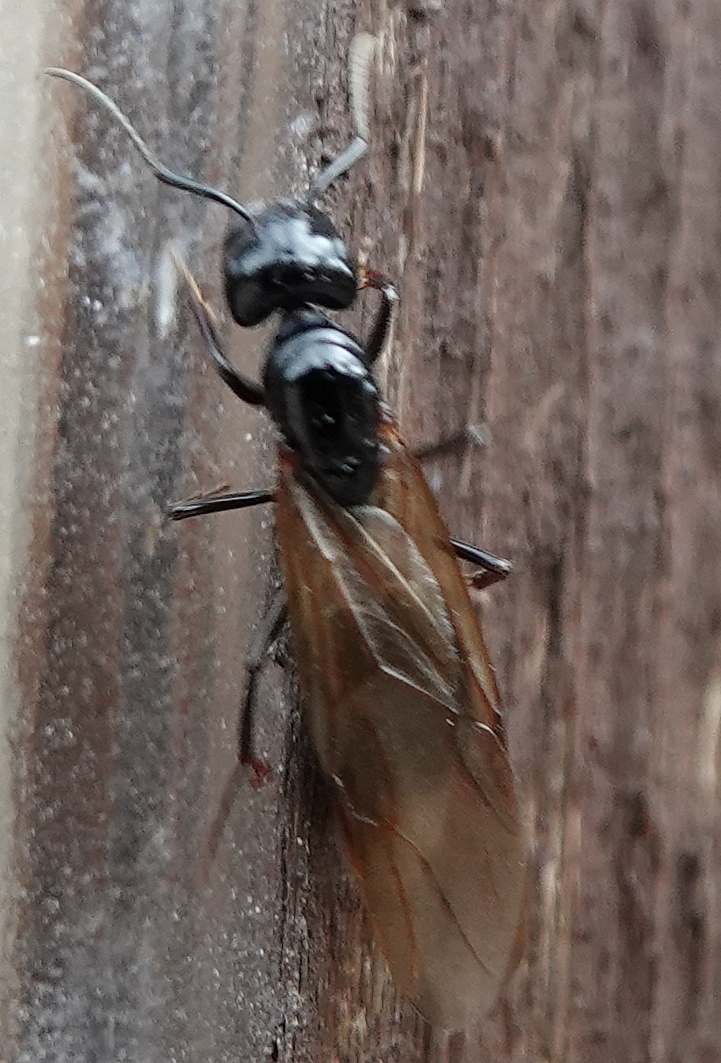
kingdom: Animalia
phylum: Arthropoda
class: Insecta
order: Hymenoptera
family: Formicidae
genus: Camponotus
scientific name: Camponotus
